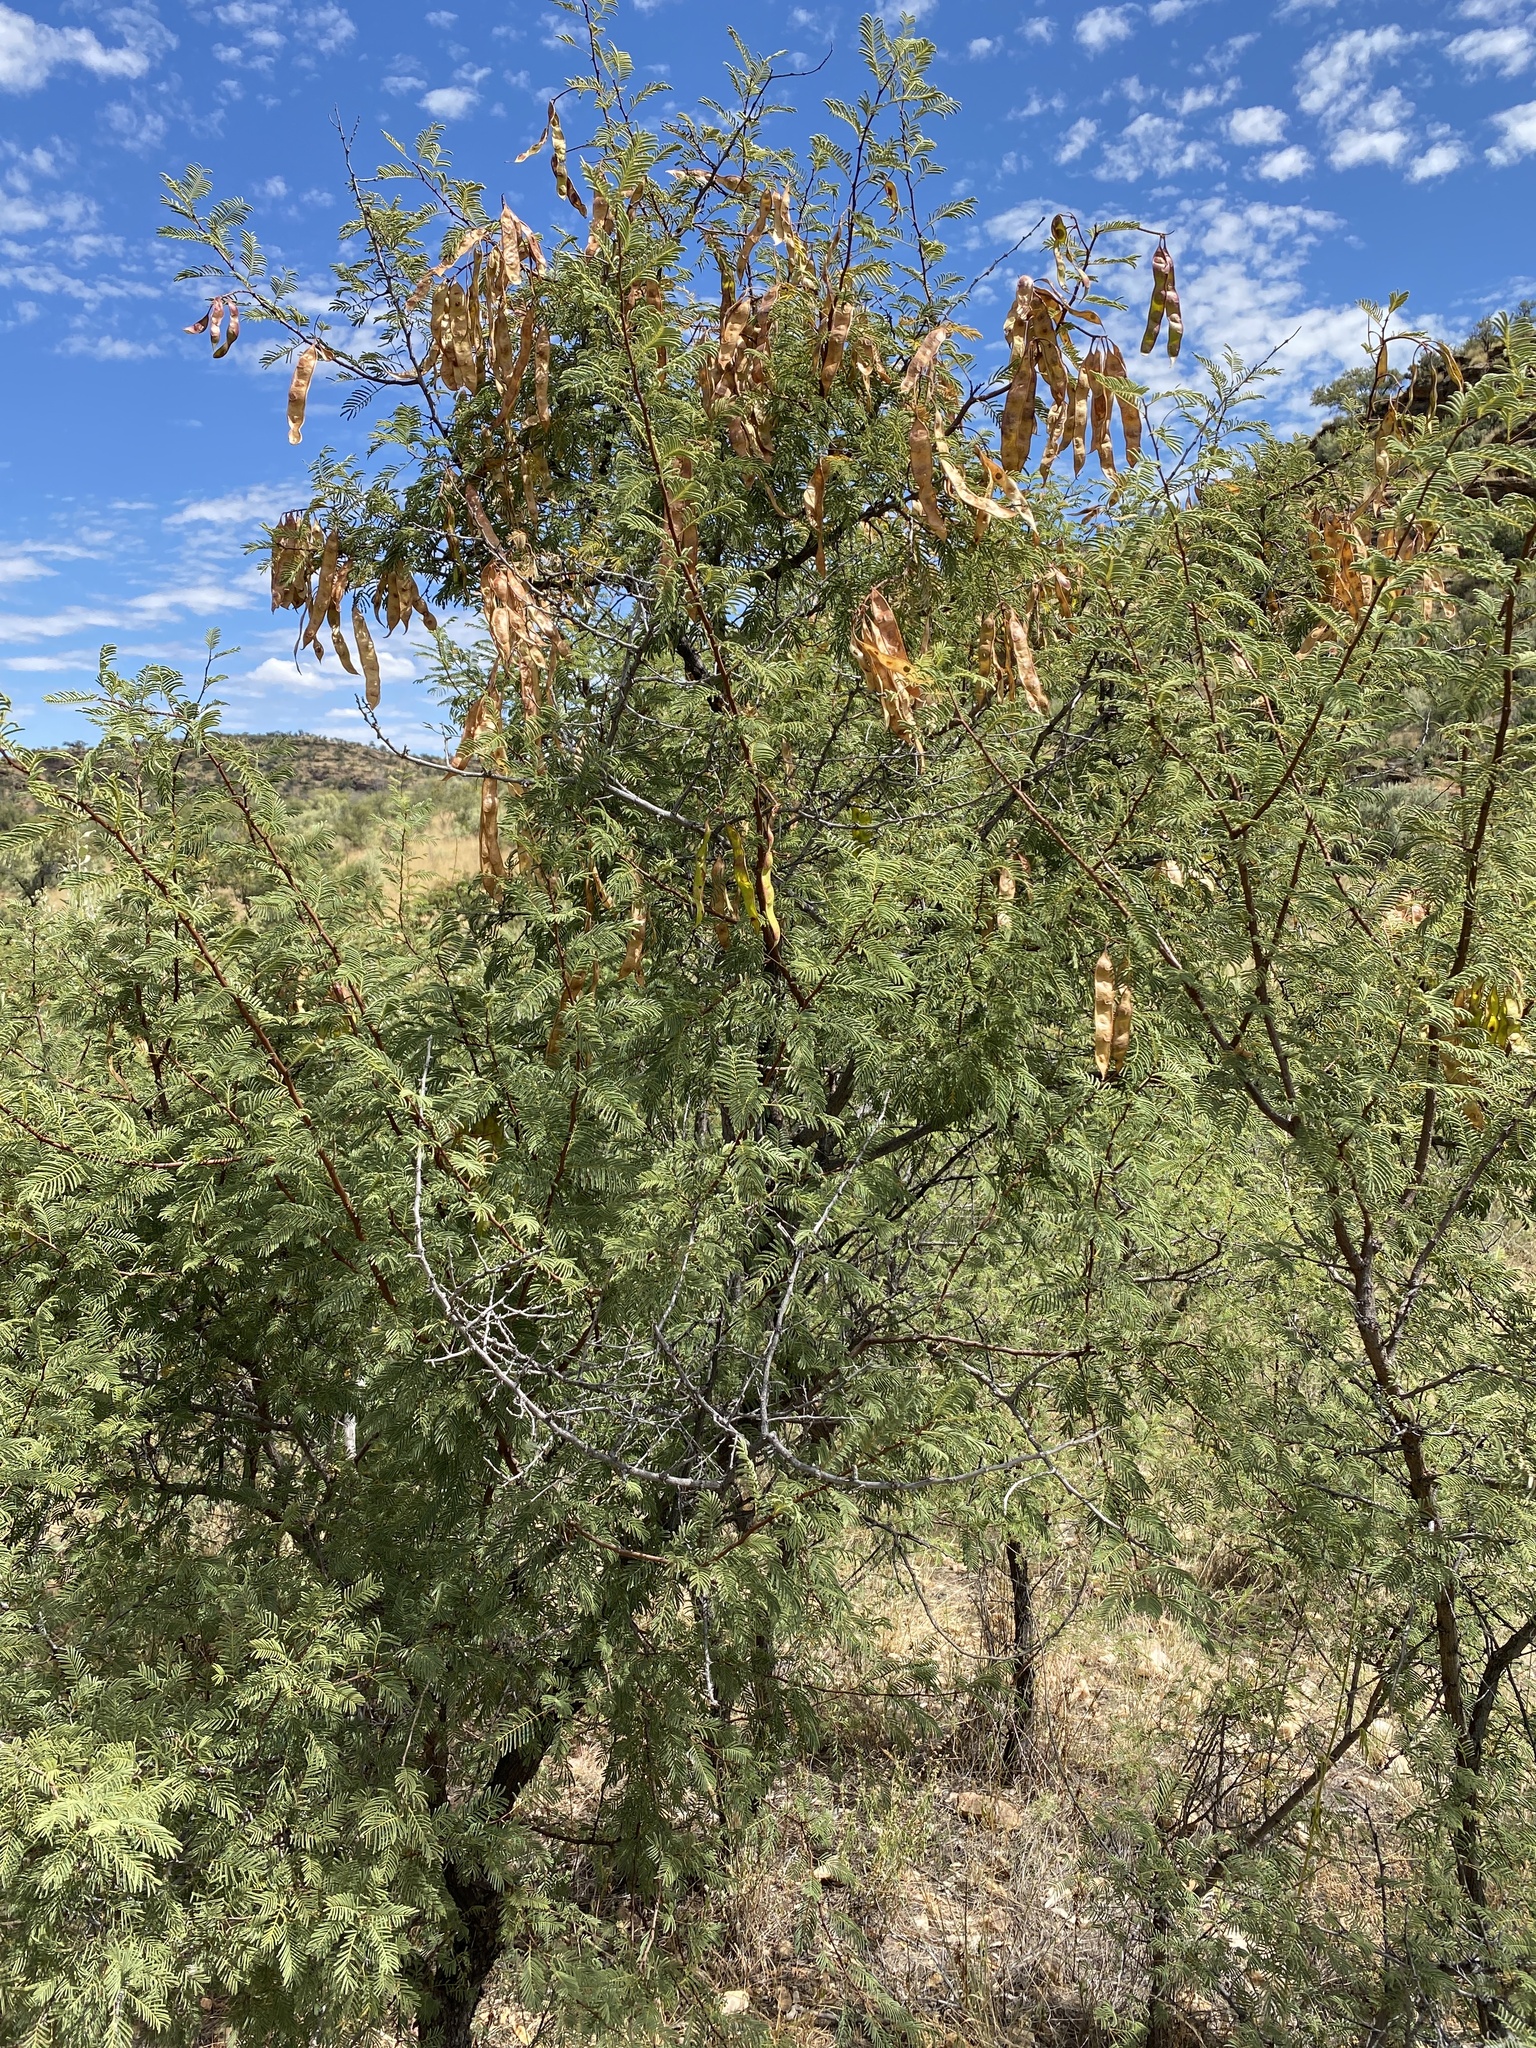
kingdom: Plantae
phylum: Tracheophyta
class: Magnoliopsida
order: Fabales
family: Fabaceae
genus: Senegalia
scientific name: Senegalia hereroensis
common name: Arid hook-thorn
